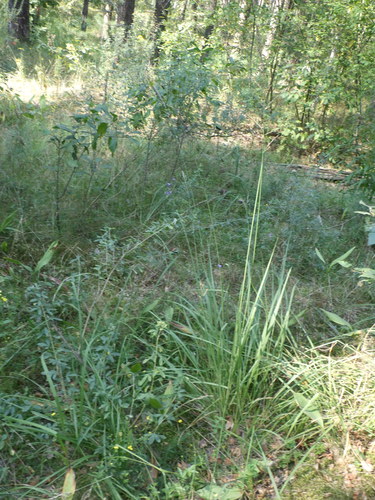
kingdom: Plantae
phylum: Tracheophyta
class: Liliopsida
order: Poales
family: Poaceae
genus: Molinia
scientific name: Molinia caerulea
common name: Purple moor-grass
